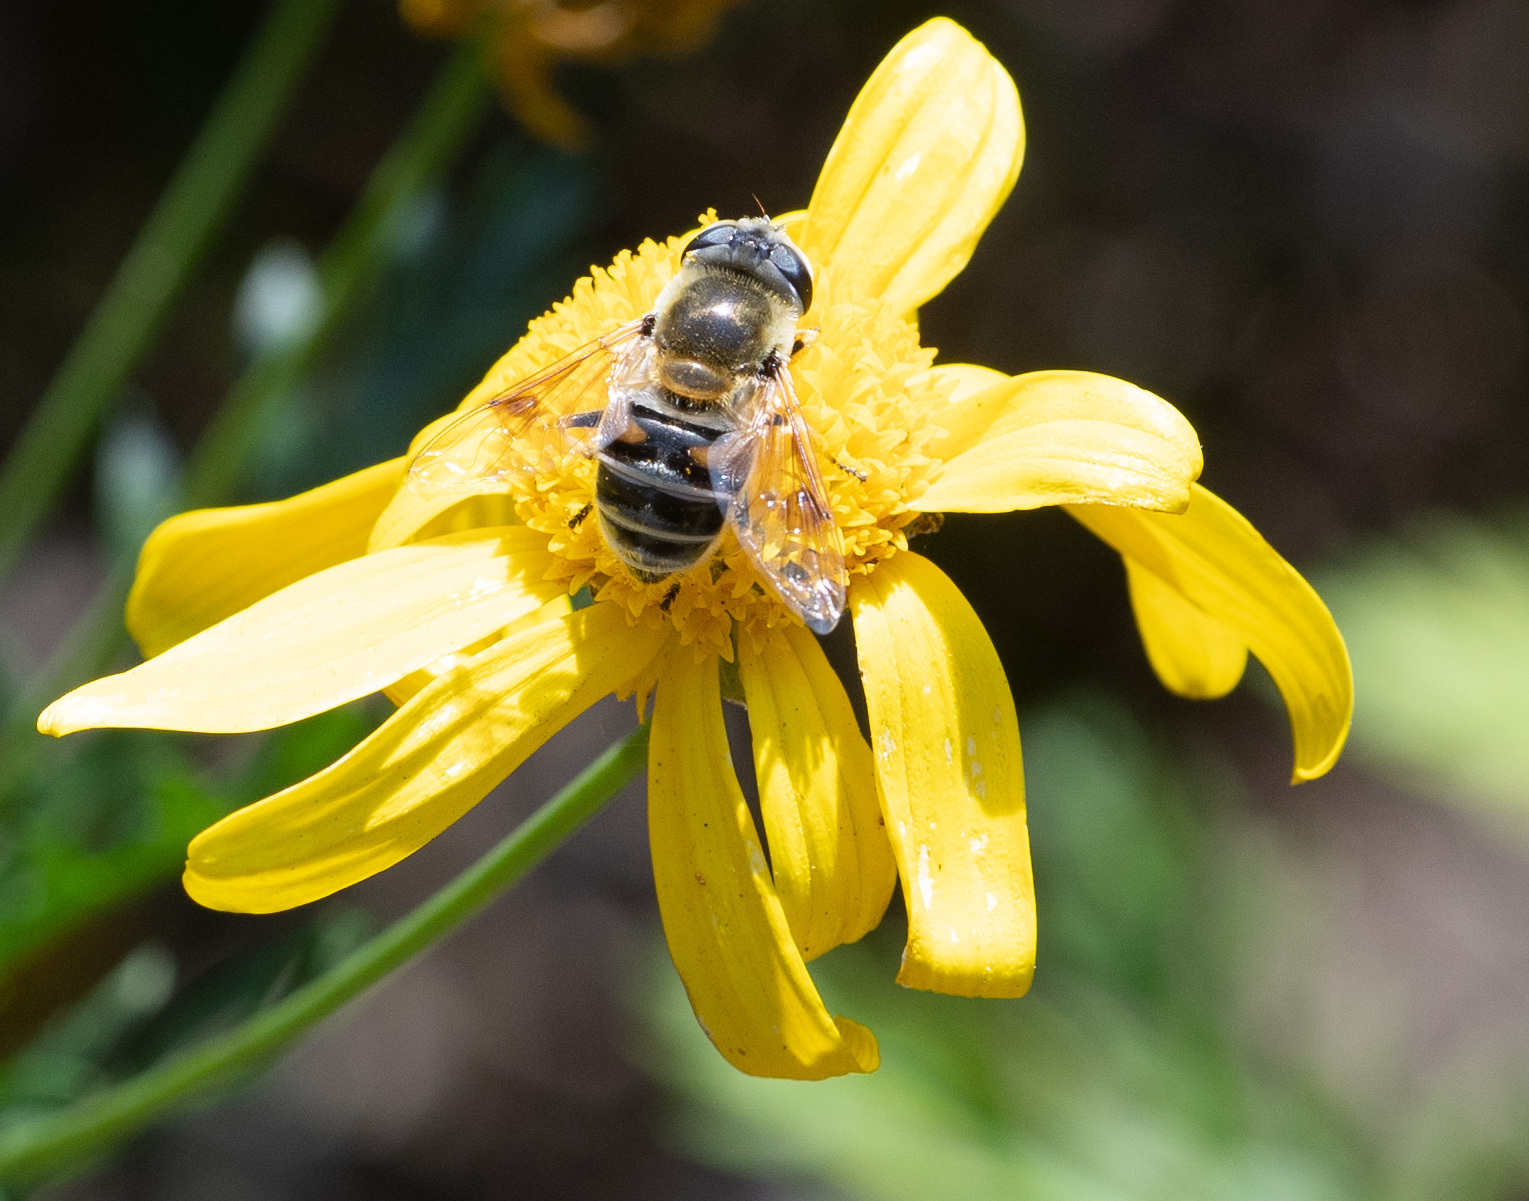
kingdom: Animalia
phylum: Arthropoda
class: Insecta
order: Diptera
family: Syrphidae
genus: Eristalis
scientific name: Eristalis stipator
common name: Yellow-shouldered drone fly
